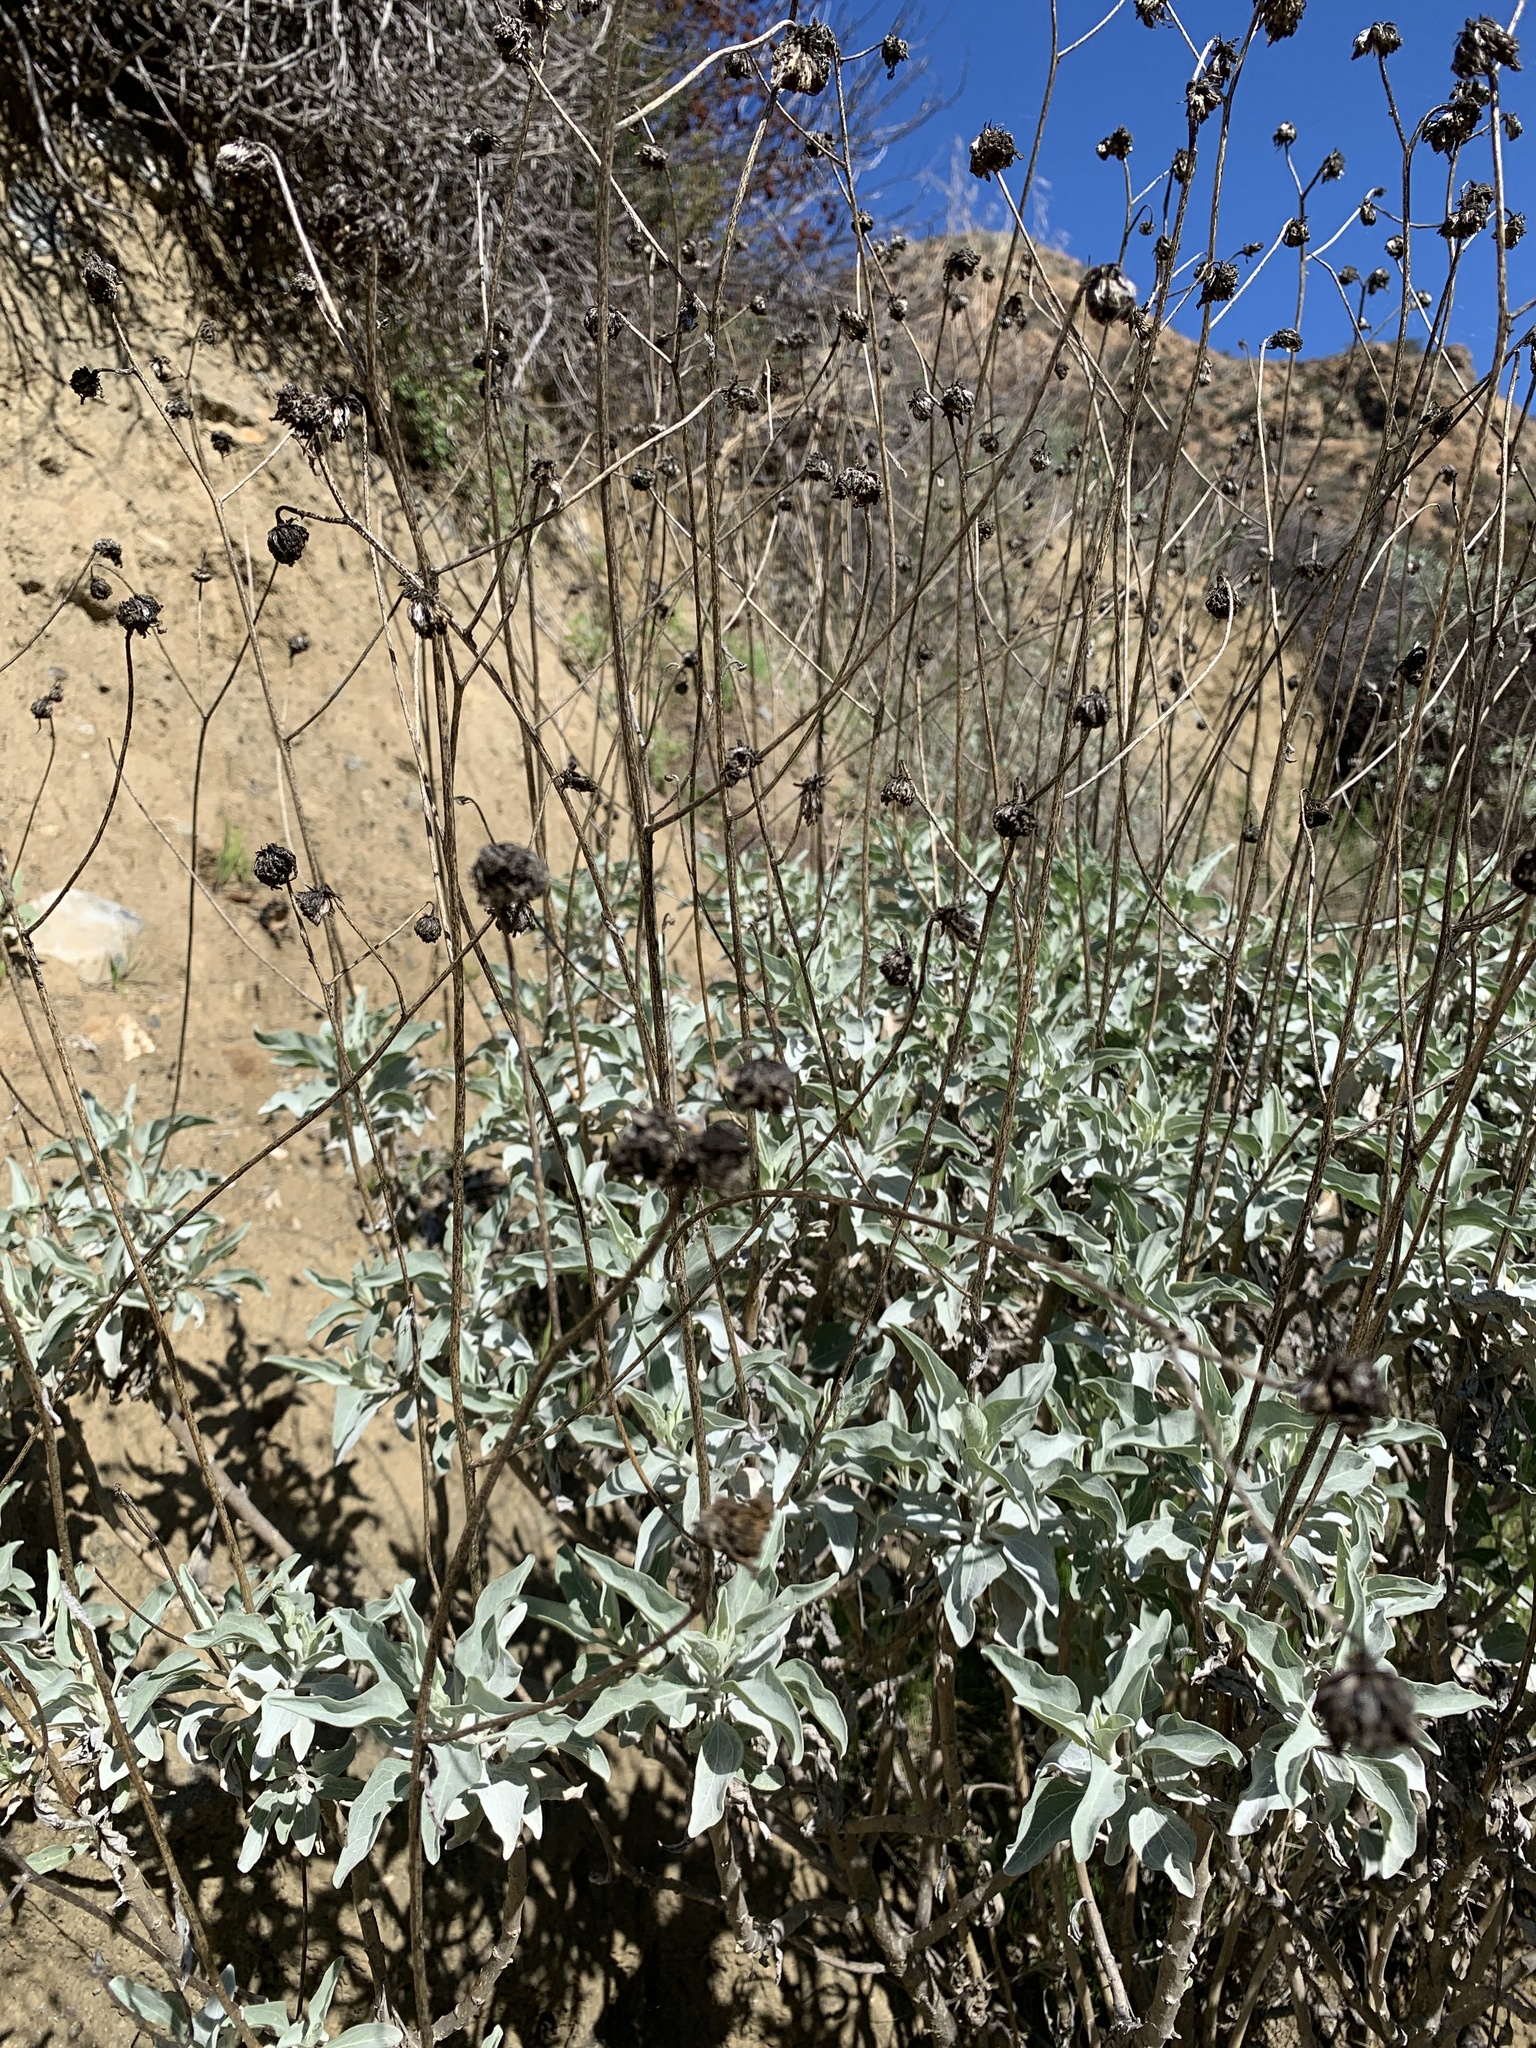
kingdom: Plantae
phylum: Tracheophyta
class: Magnoliopsida
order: Asterales
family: Asteraceae
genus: Encelia
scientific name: Encelia farinosa
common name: Brittlebush
